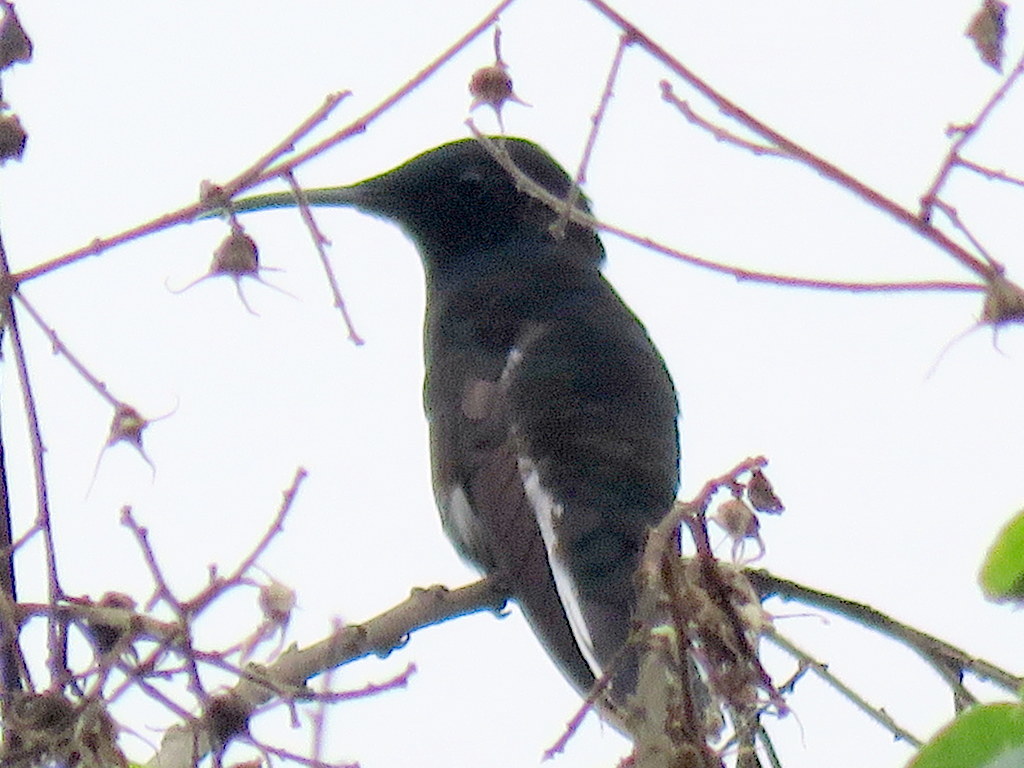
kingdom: Animalia
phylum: Chordata
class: Aves
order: Apodiformes
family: Trochilidae
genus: Florisuga
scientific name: Florisuga fusca
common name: Black jacobin
